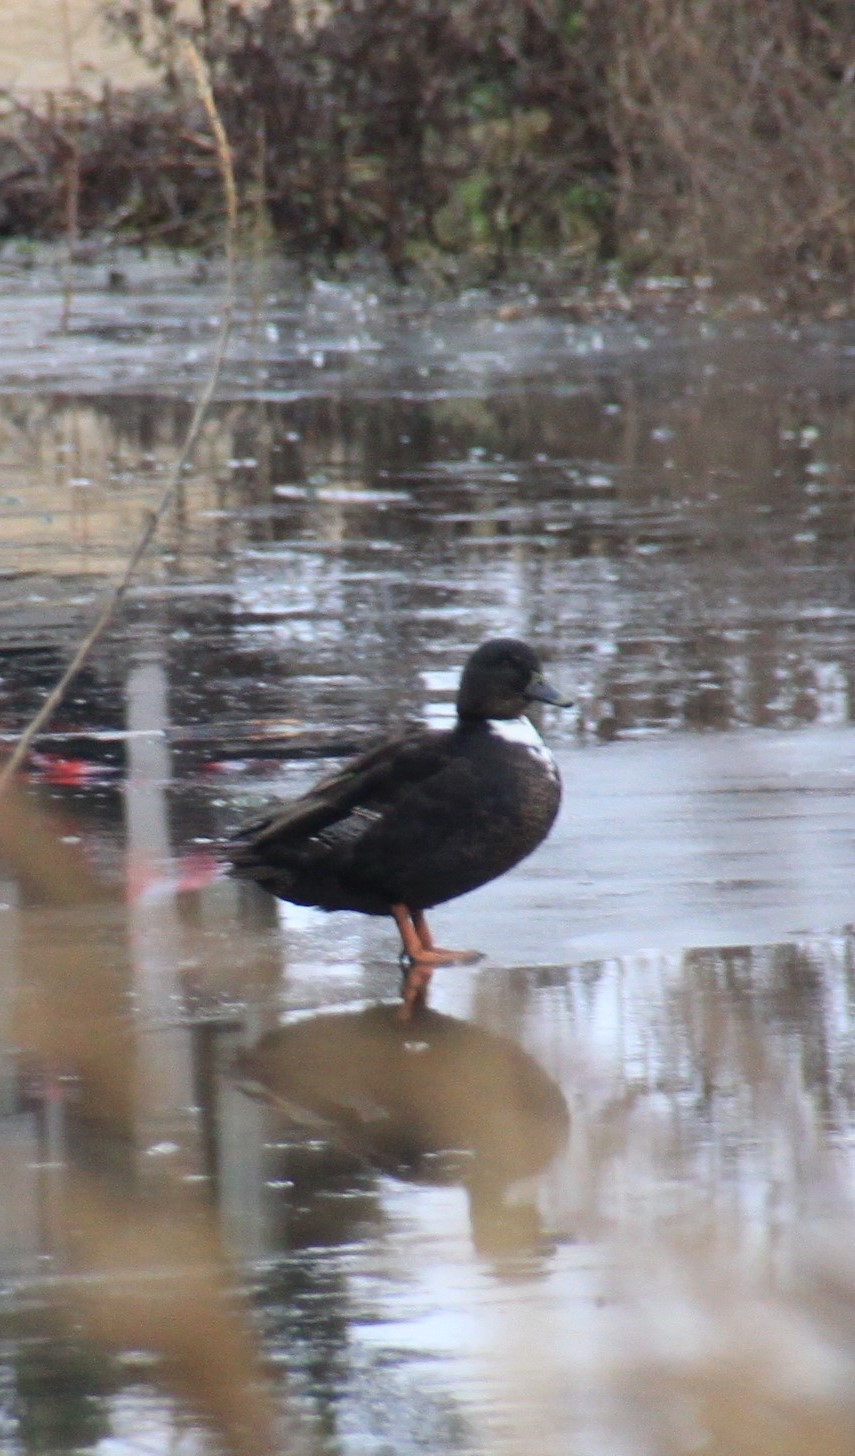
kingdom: Animalia
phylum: Chordata
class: Aves
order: Anseriformes
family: Anatidae
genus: Anas
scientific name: Anas platyrhynchos
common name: Mallard
